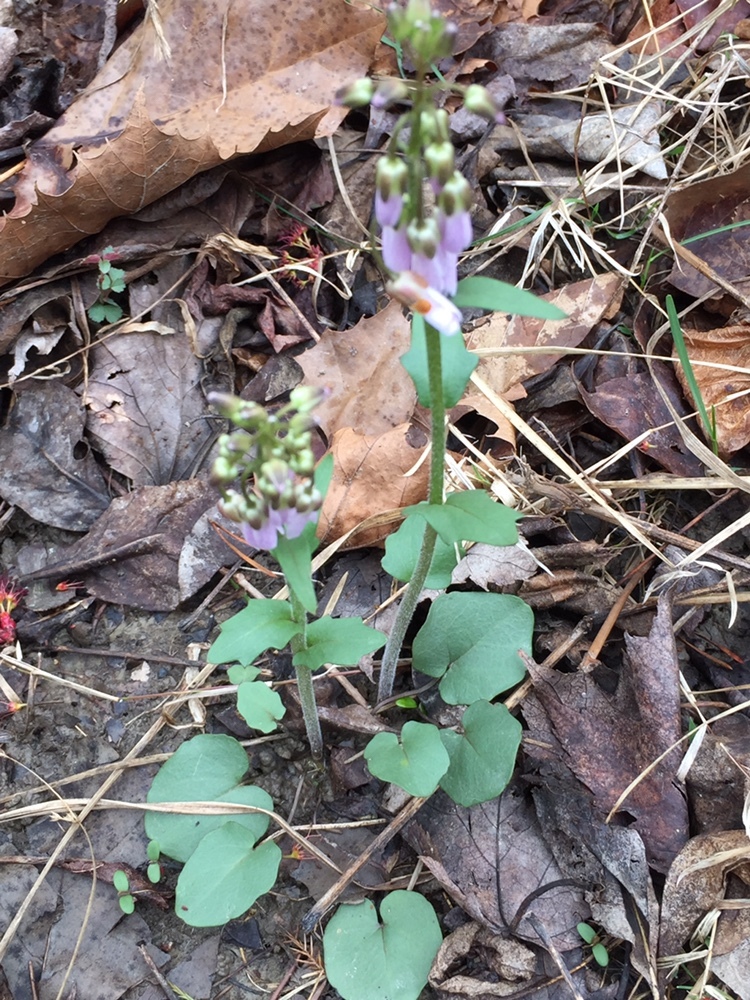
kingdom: Plantae
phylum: Tracheophyta
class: Magnoliopsida
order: Brassicales
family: Brassicaceae
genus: Cardamine
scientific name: Cardamine douglassii
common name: Purple cress
